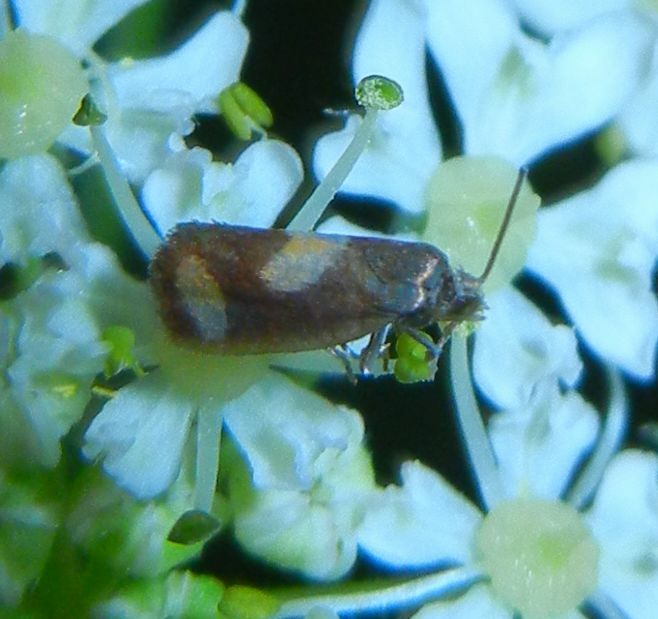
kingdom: Animalia
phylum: Arthropoda
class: Insecta
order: Lepidoptera
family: Tortricidae
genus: Pammene
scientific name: Pammene aurana
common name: Orange-spot piercer
